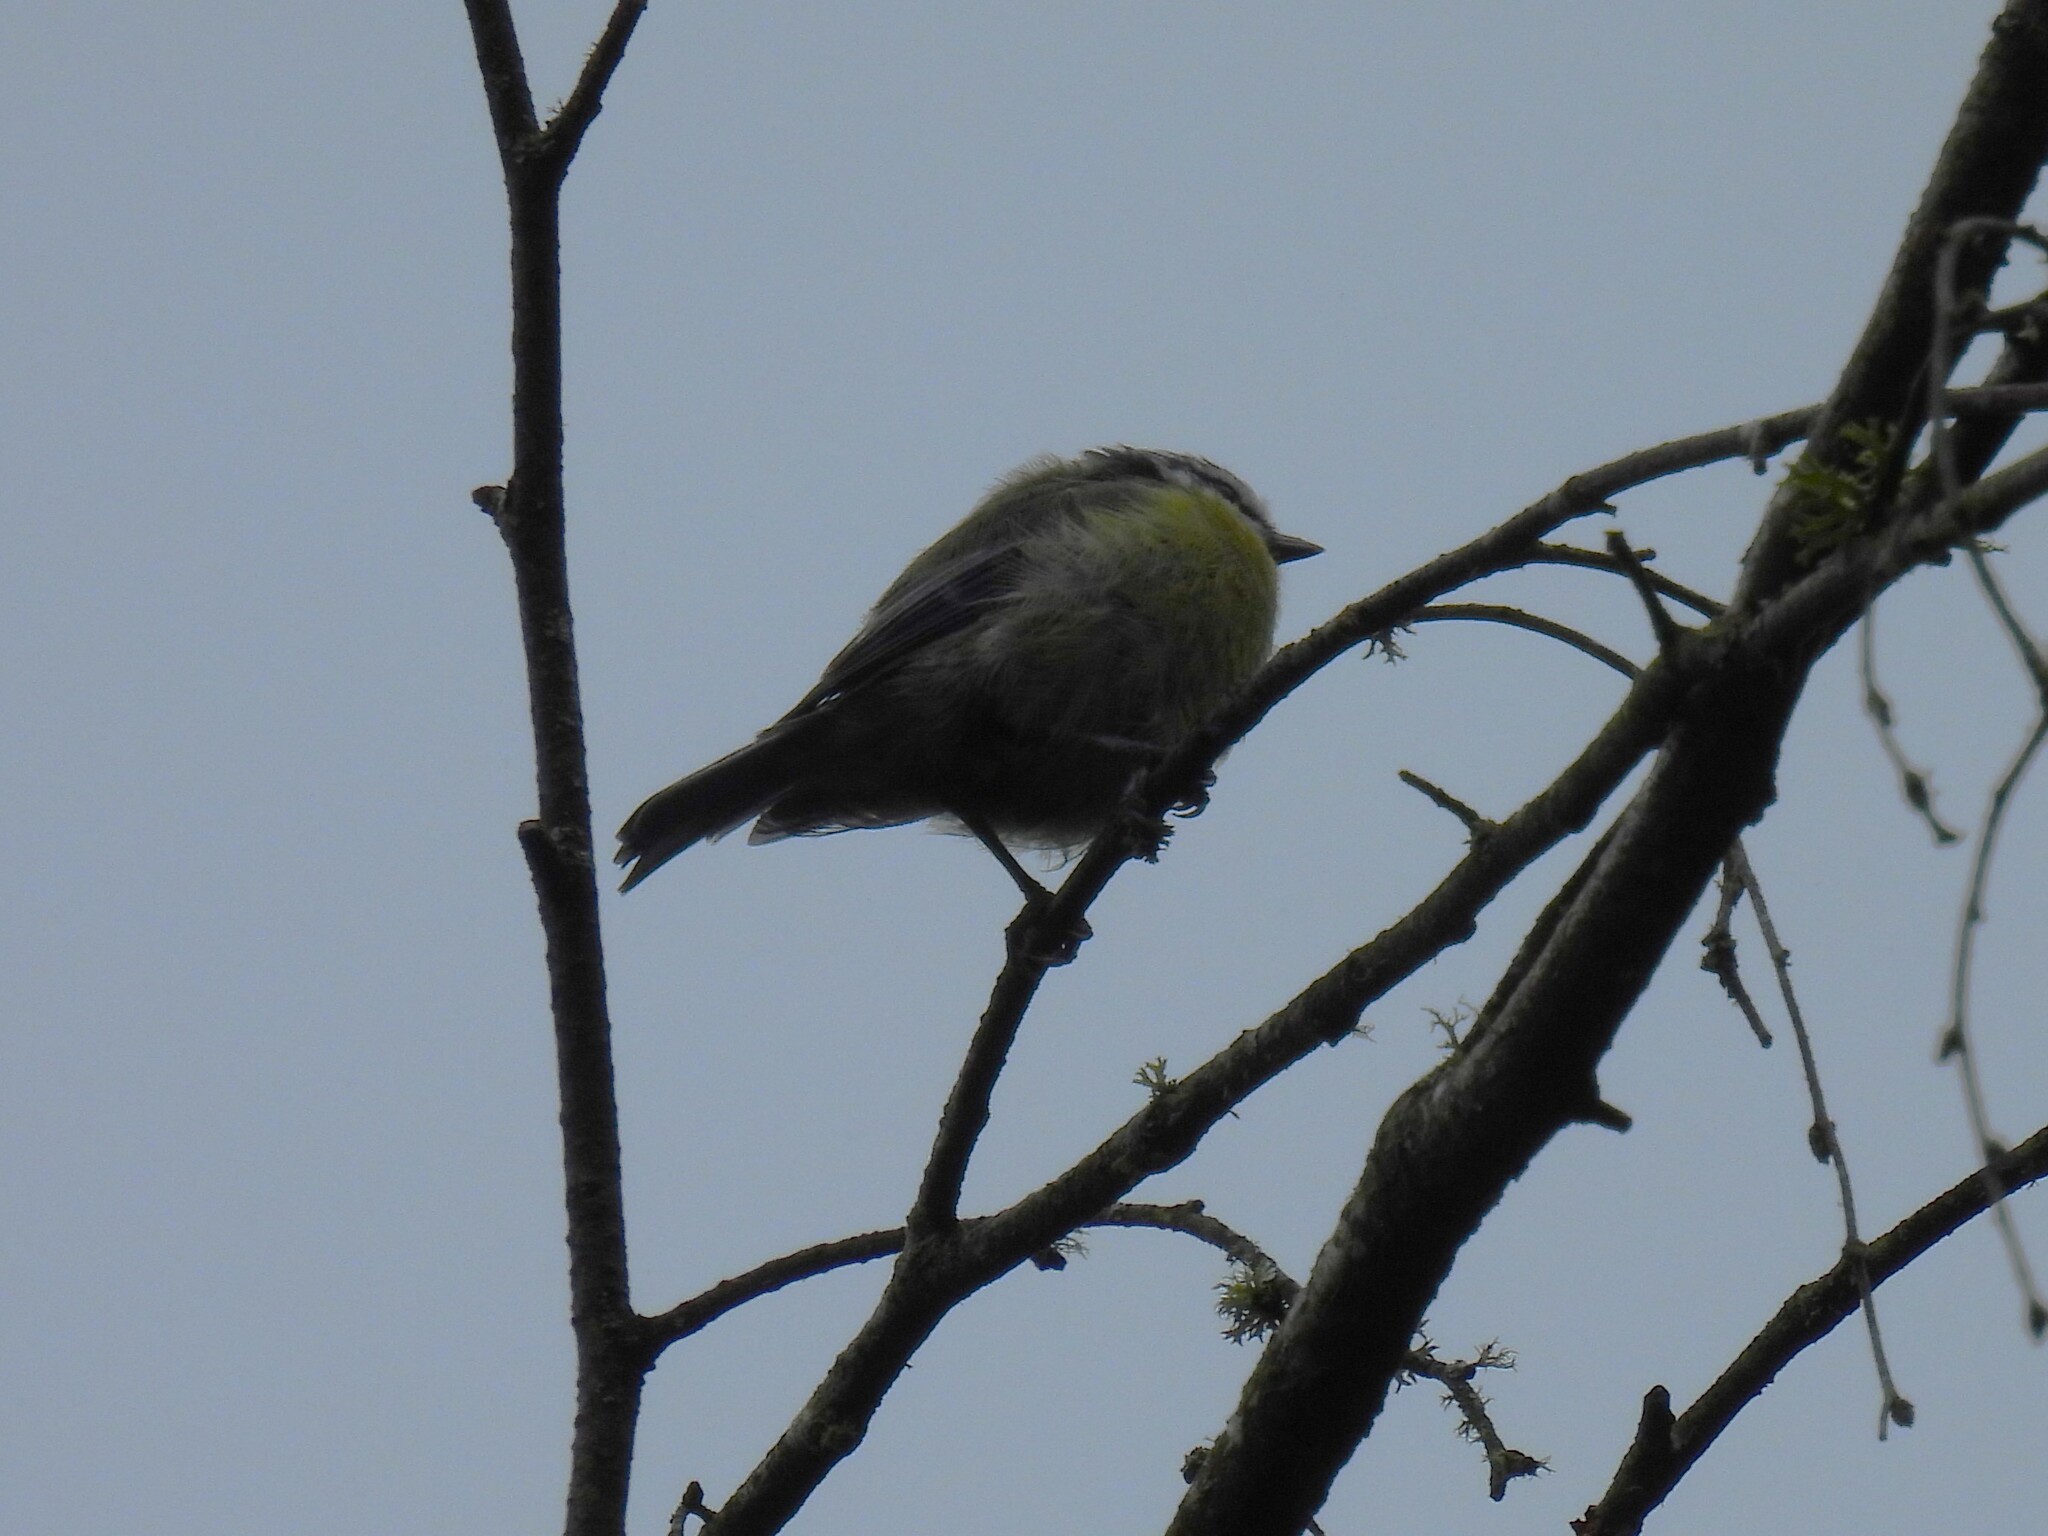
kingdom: Animalia
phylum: Chordata
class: Aves
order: Passeriformes
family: Paridae
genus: Cyanistes
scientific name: Cyanistes caeruleus
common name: Eurasian blue tit
